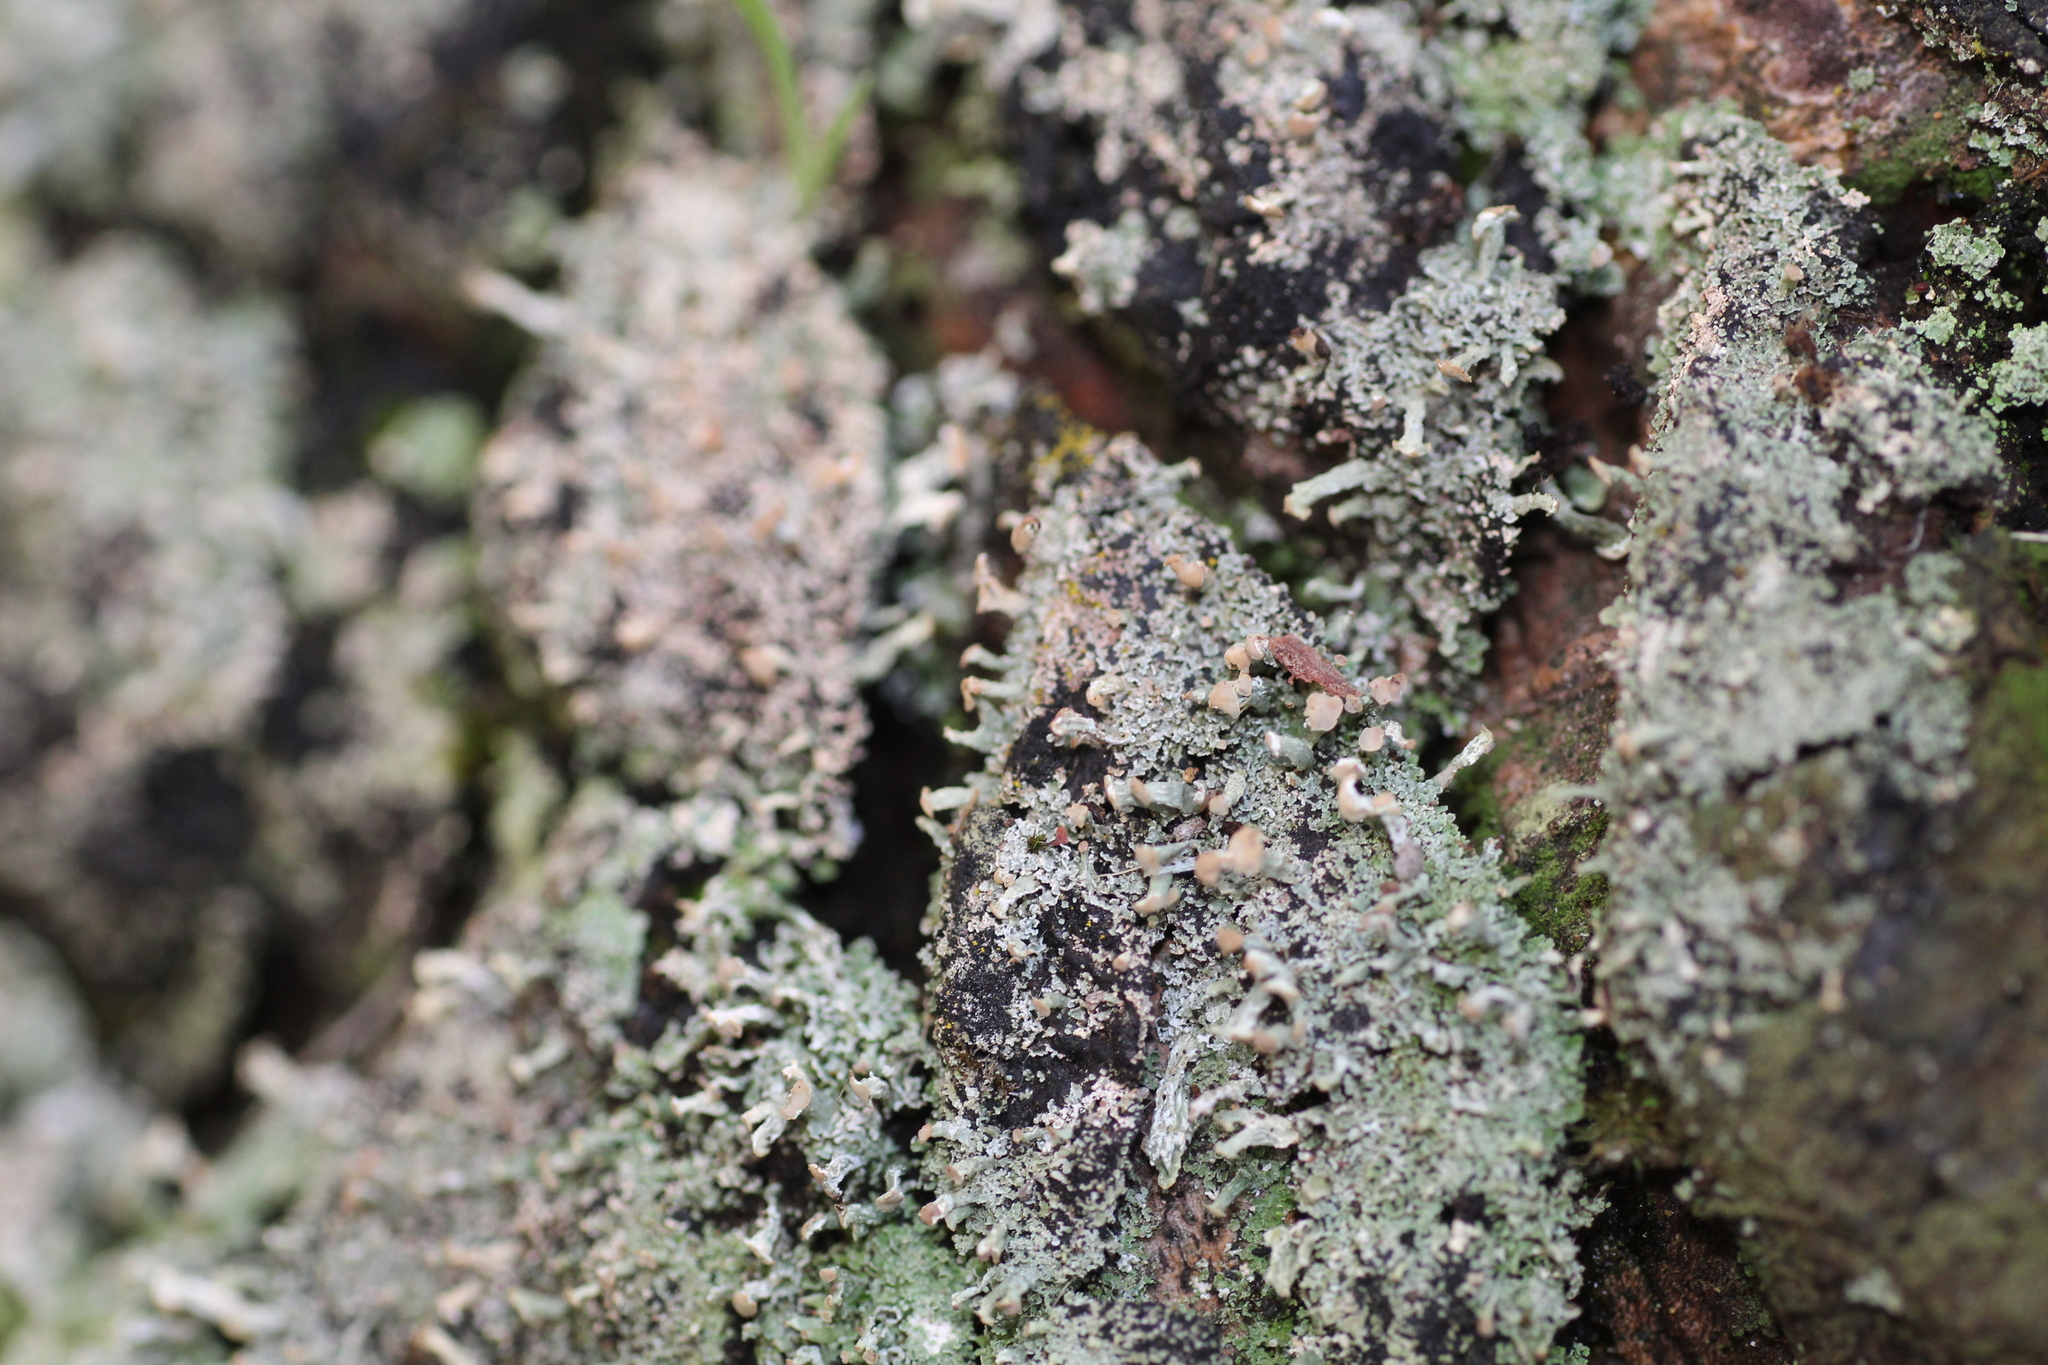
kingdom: Fungi
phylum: Ascomycota
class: Lecanoromycetes
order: Lecanorales
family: Cladoniaceae
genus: Thysanothecium
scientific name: Thysanothecium scutellatum
